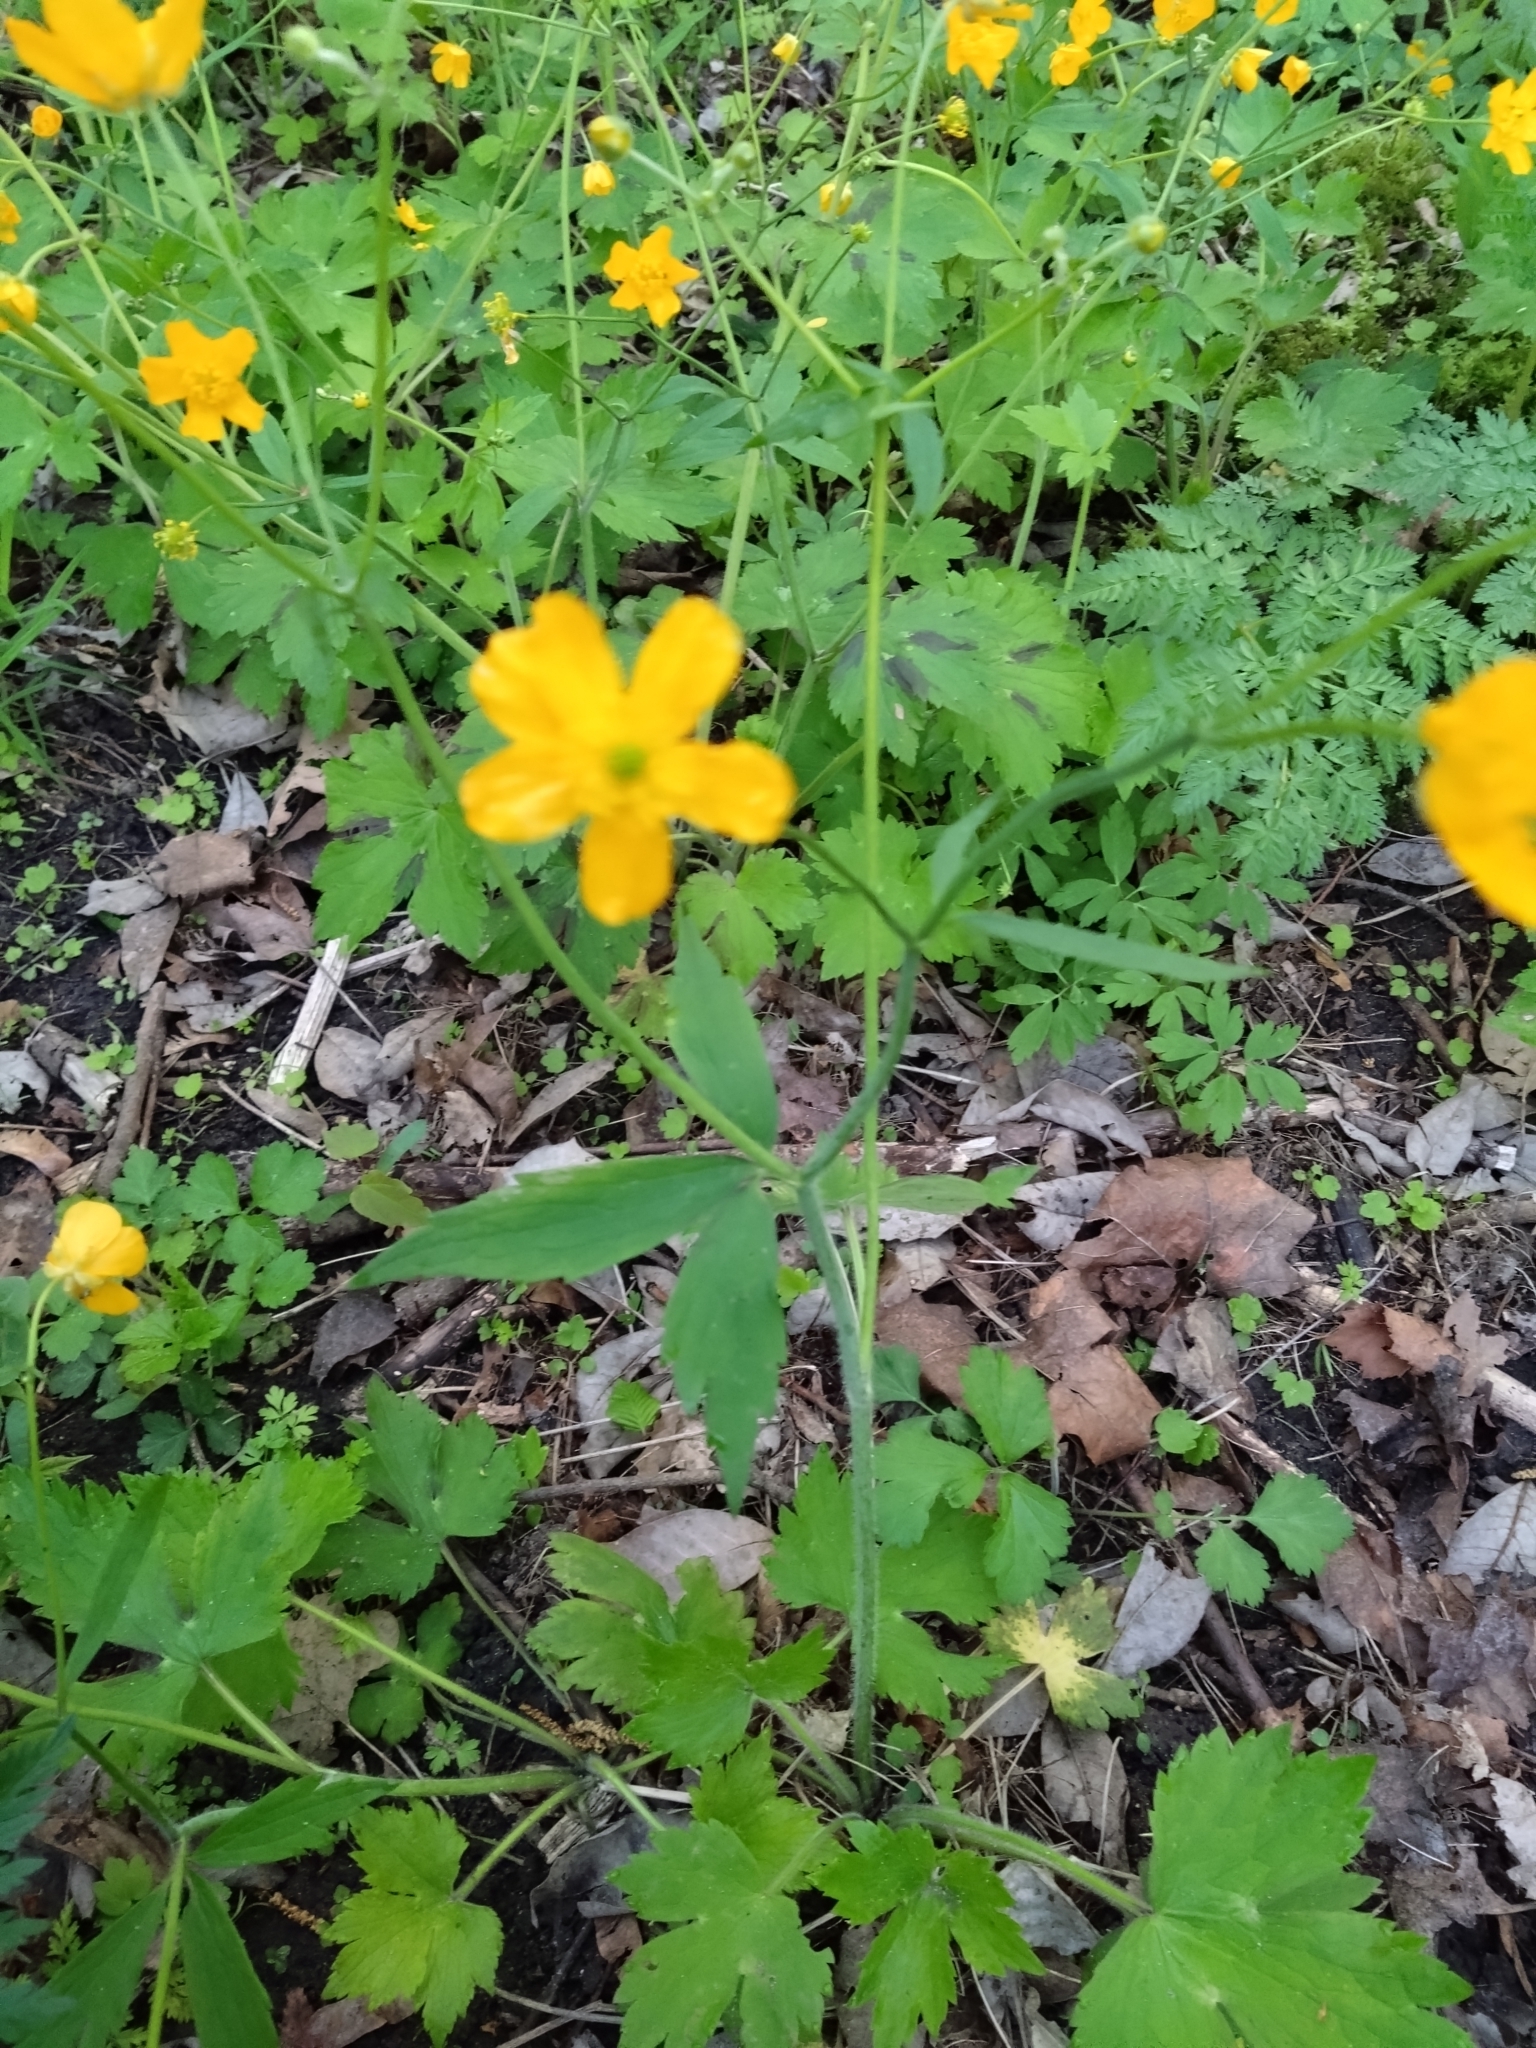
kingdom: Plantae
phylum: Tracheophyta
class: Magnoliopsida
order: Ranunculales
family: Ranunculaceae
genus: Ranunculus
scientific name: Ranunculus lanuginosus
